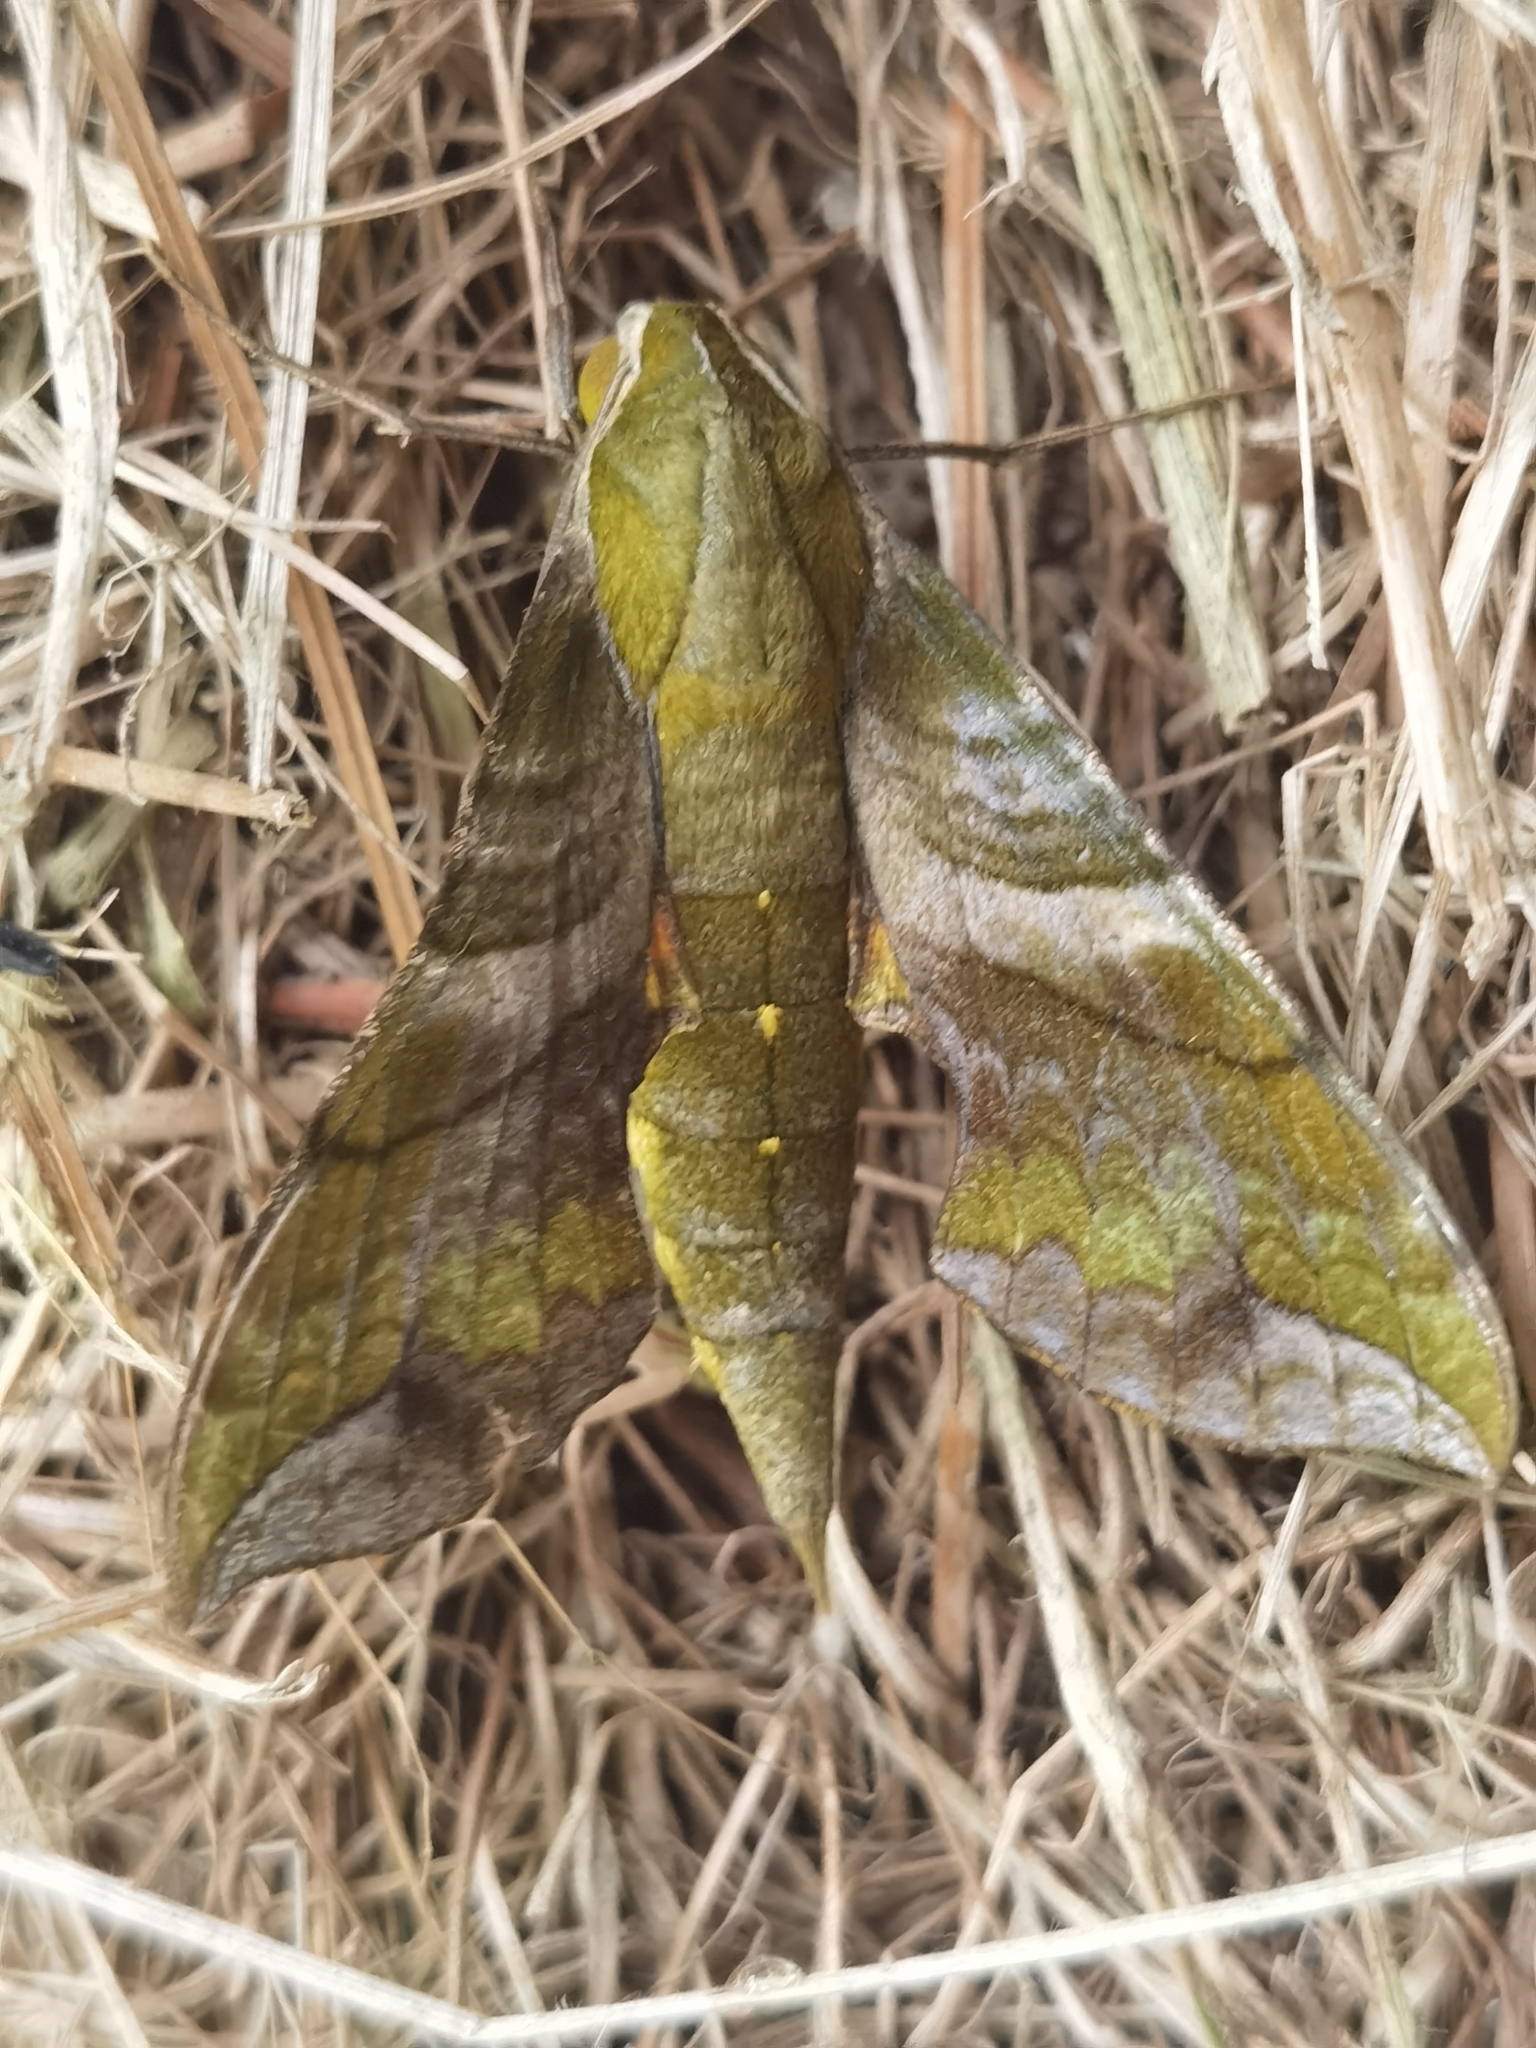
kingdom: Animalia
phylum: Arthropoda
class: Insecta
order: Lepidoptera
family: Sphingidae
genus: Xylophanes
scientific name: Xylophanes pluto
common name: Pluto sphinx
